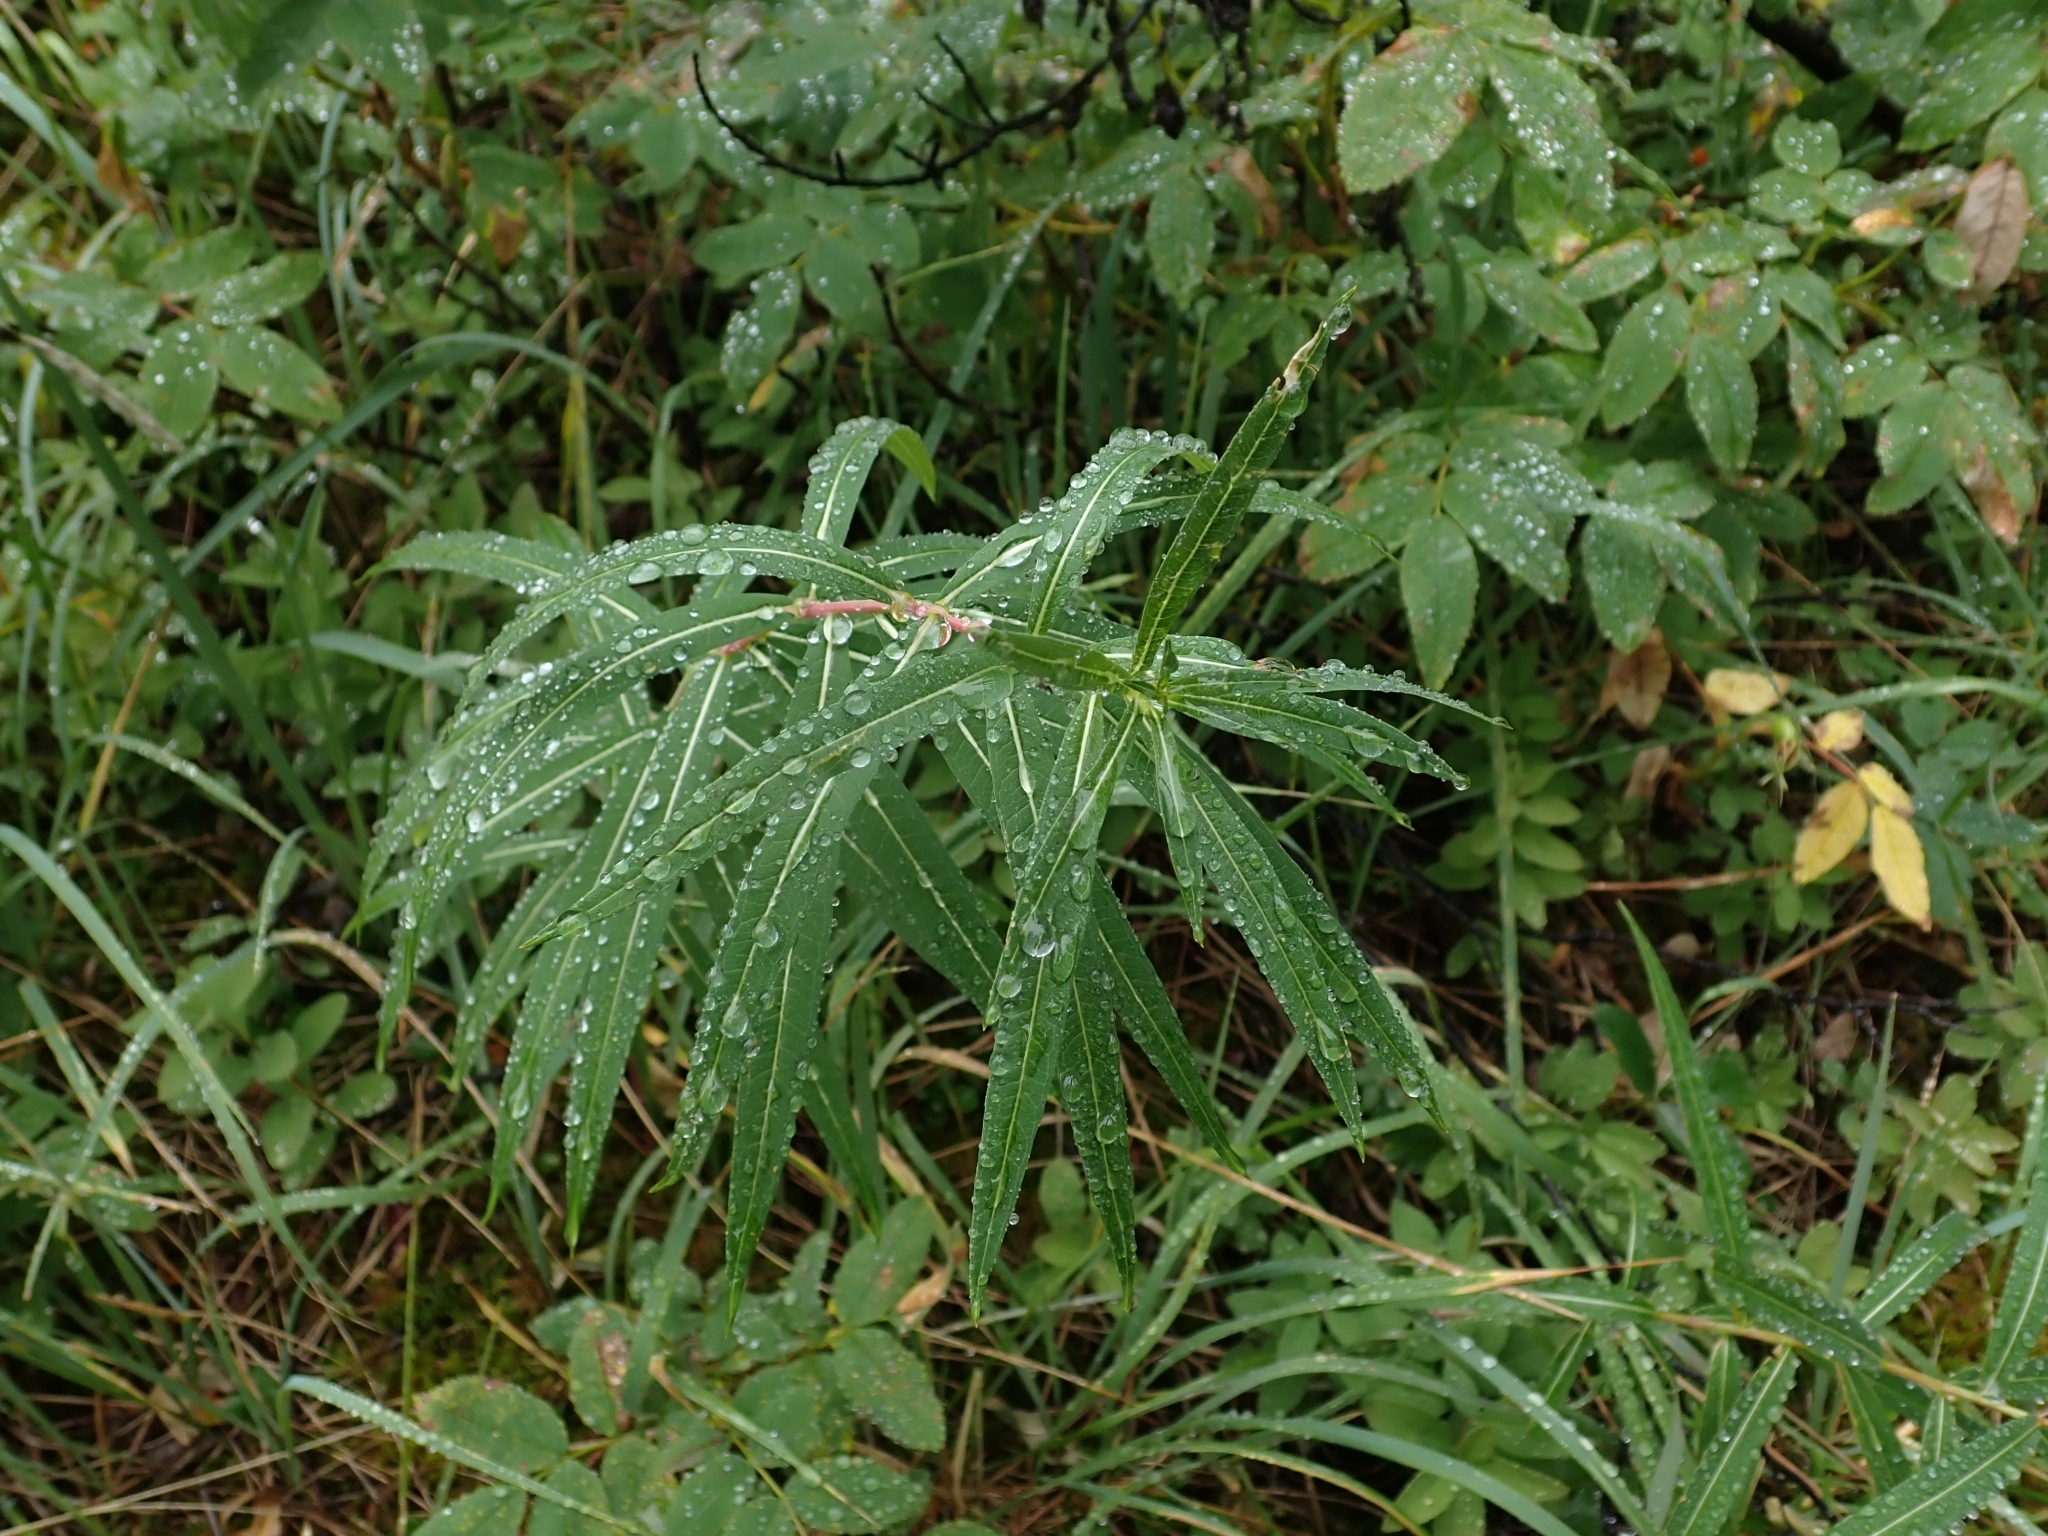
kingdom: Plantae
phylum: Tracheophyta
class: Magnoliopsida
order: Myrtales
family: Onagraceae
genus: Chamaenerion
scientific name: Chamaenerion angustifolium
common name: Fireweed
